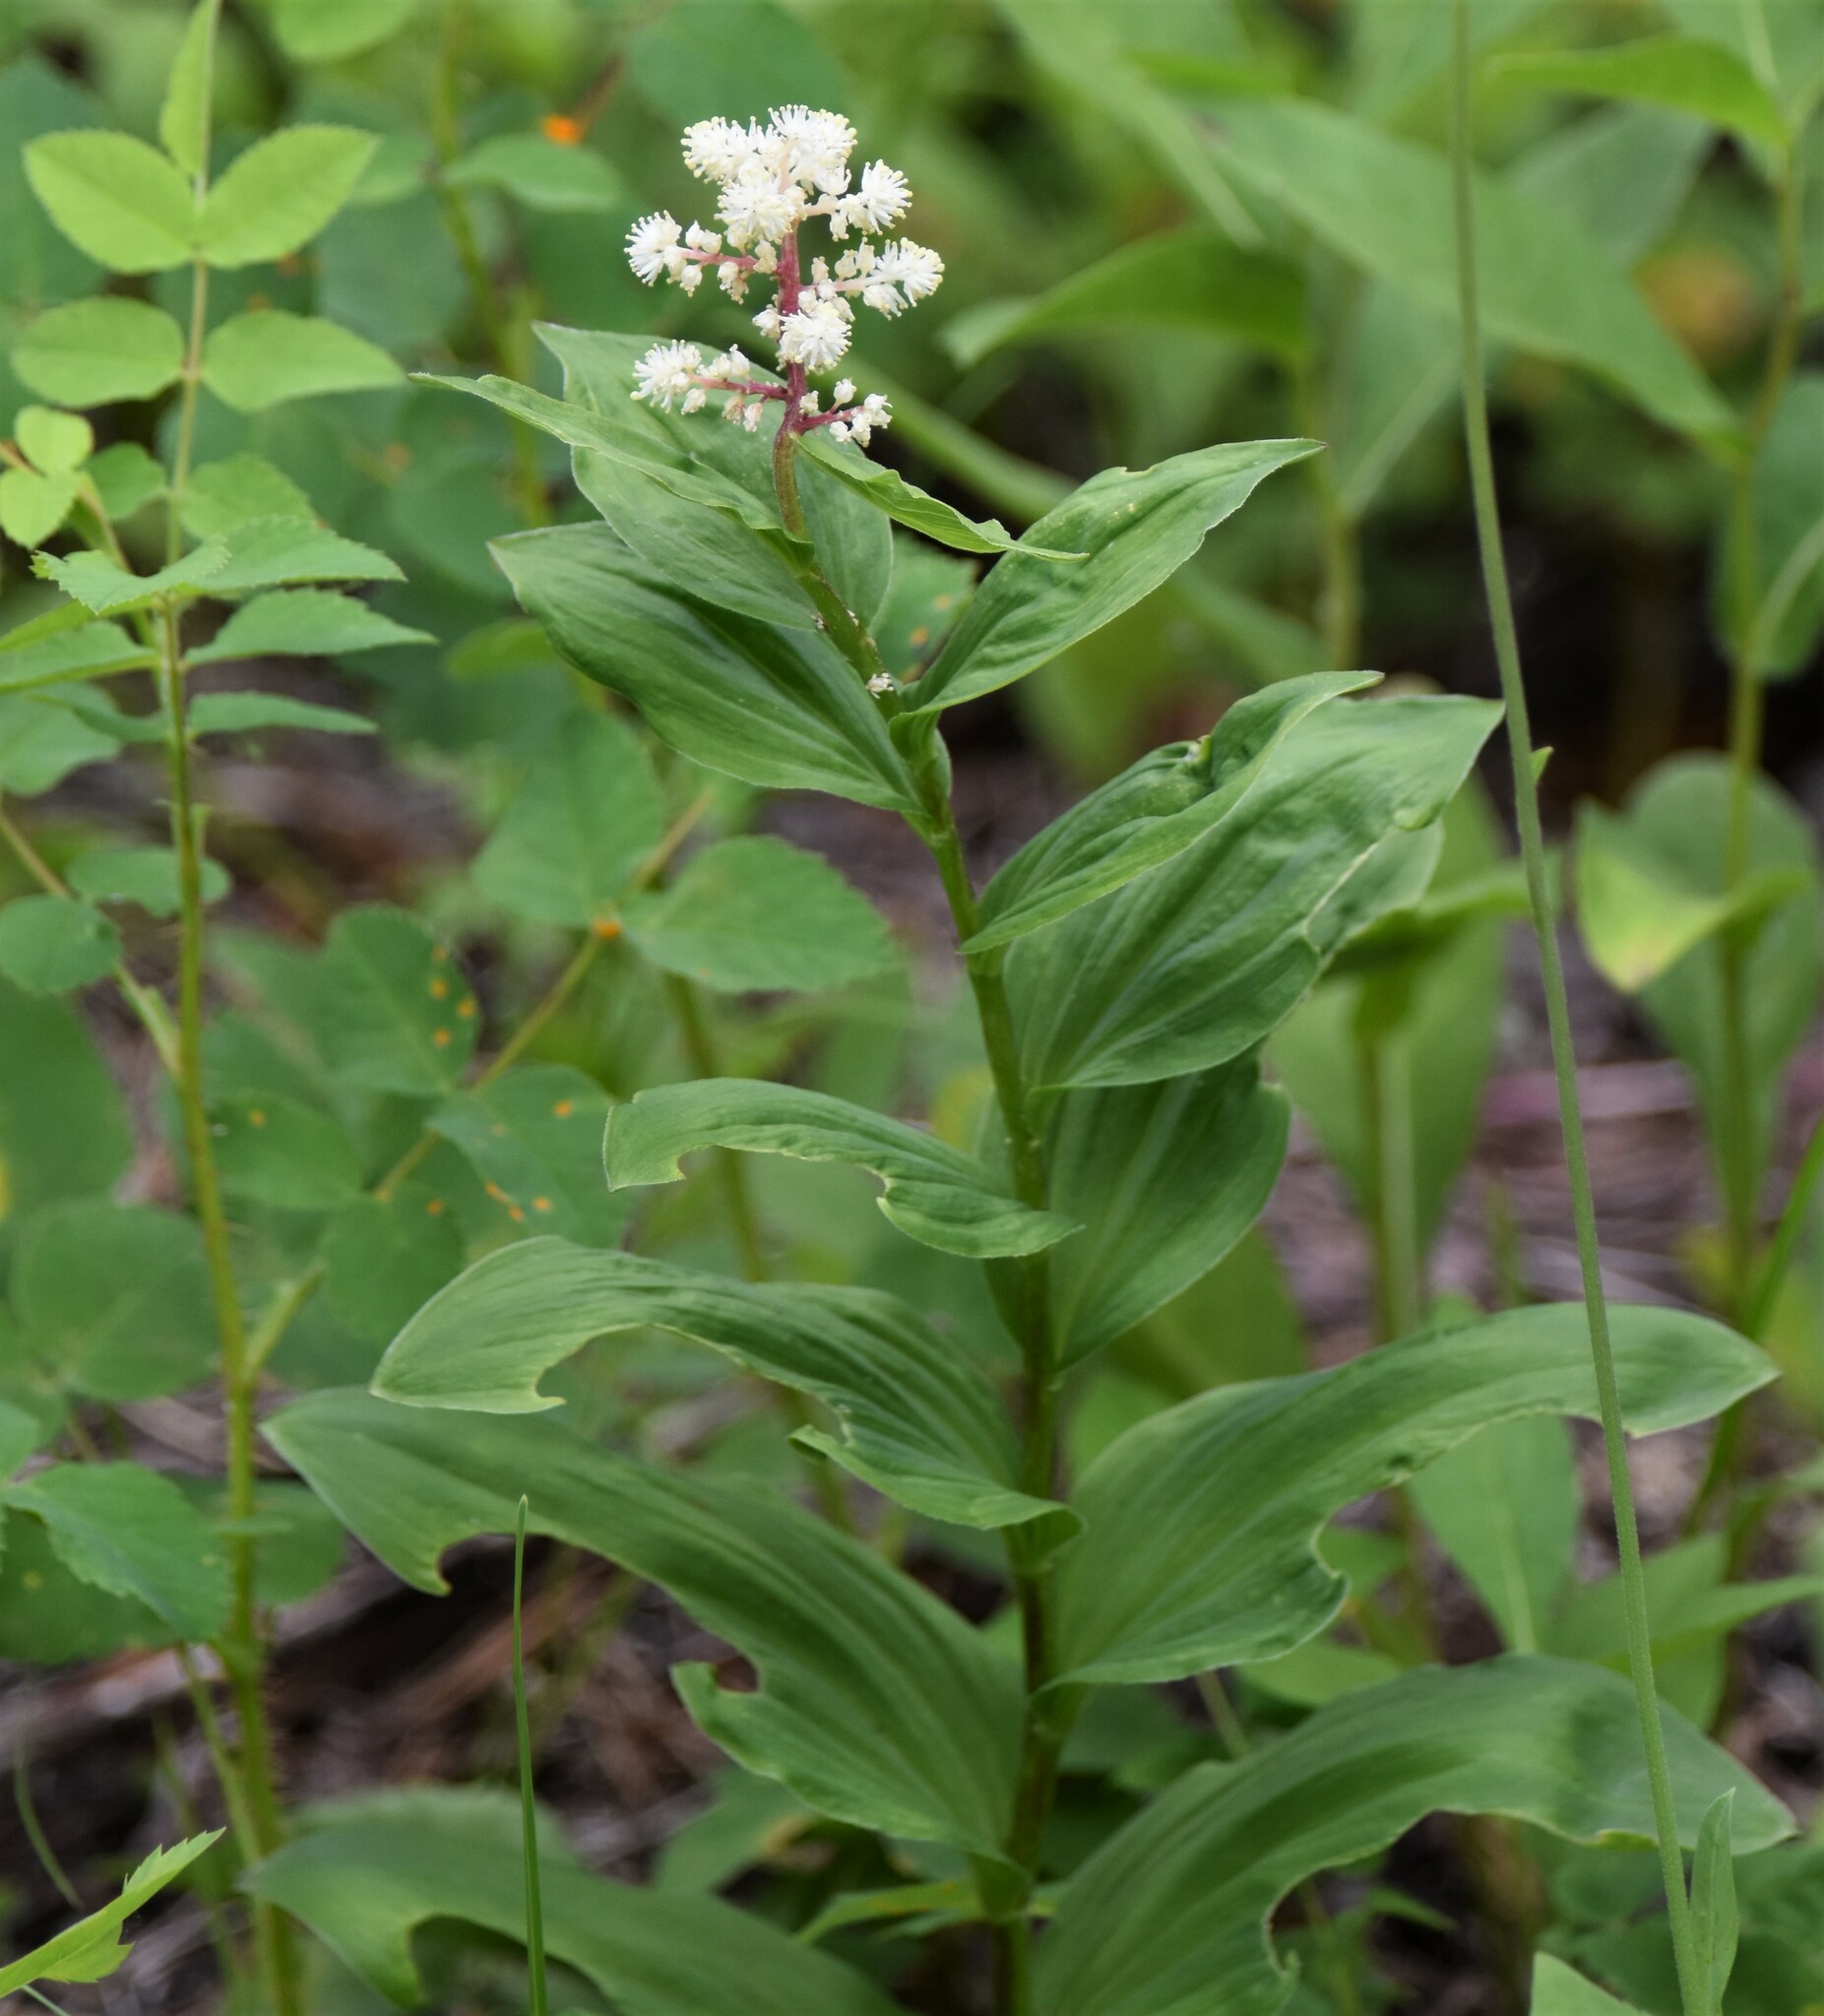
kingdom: Plantae
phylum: Tracheophyta
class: Liliopsida
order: Asparagales
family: Asparagaceae
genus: Maianthemum
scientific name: Maianthemum racemosum
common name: False spikenard
